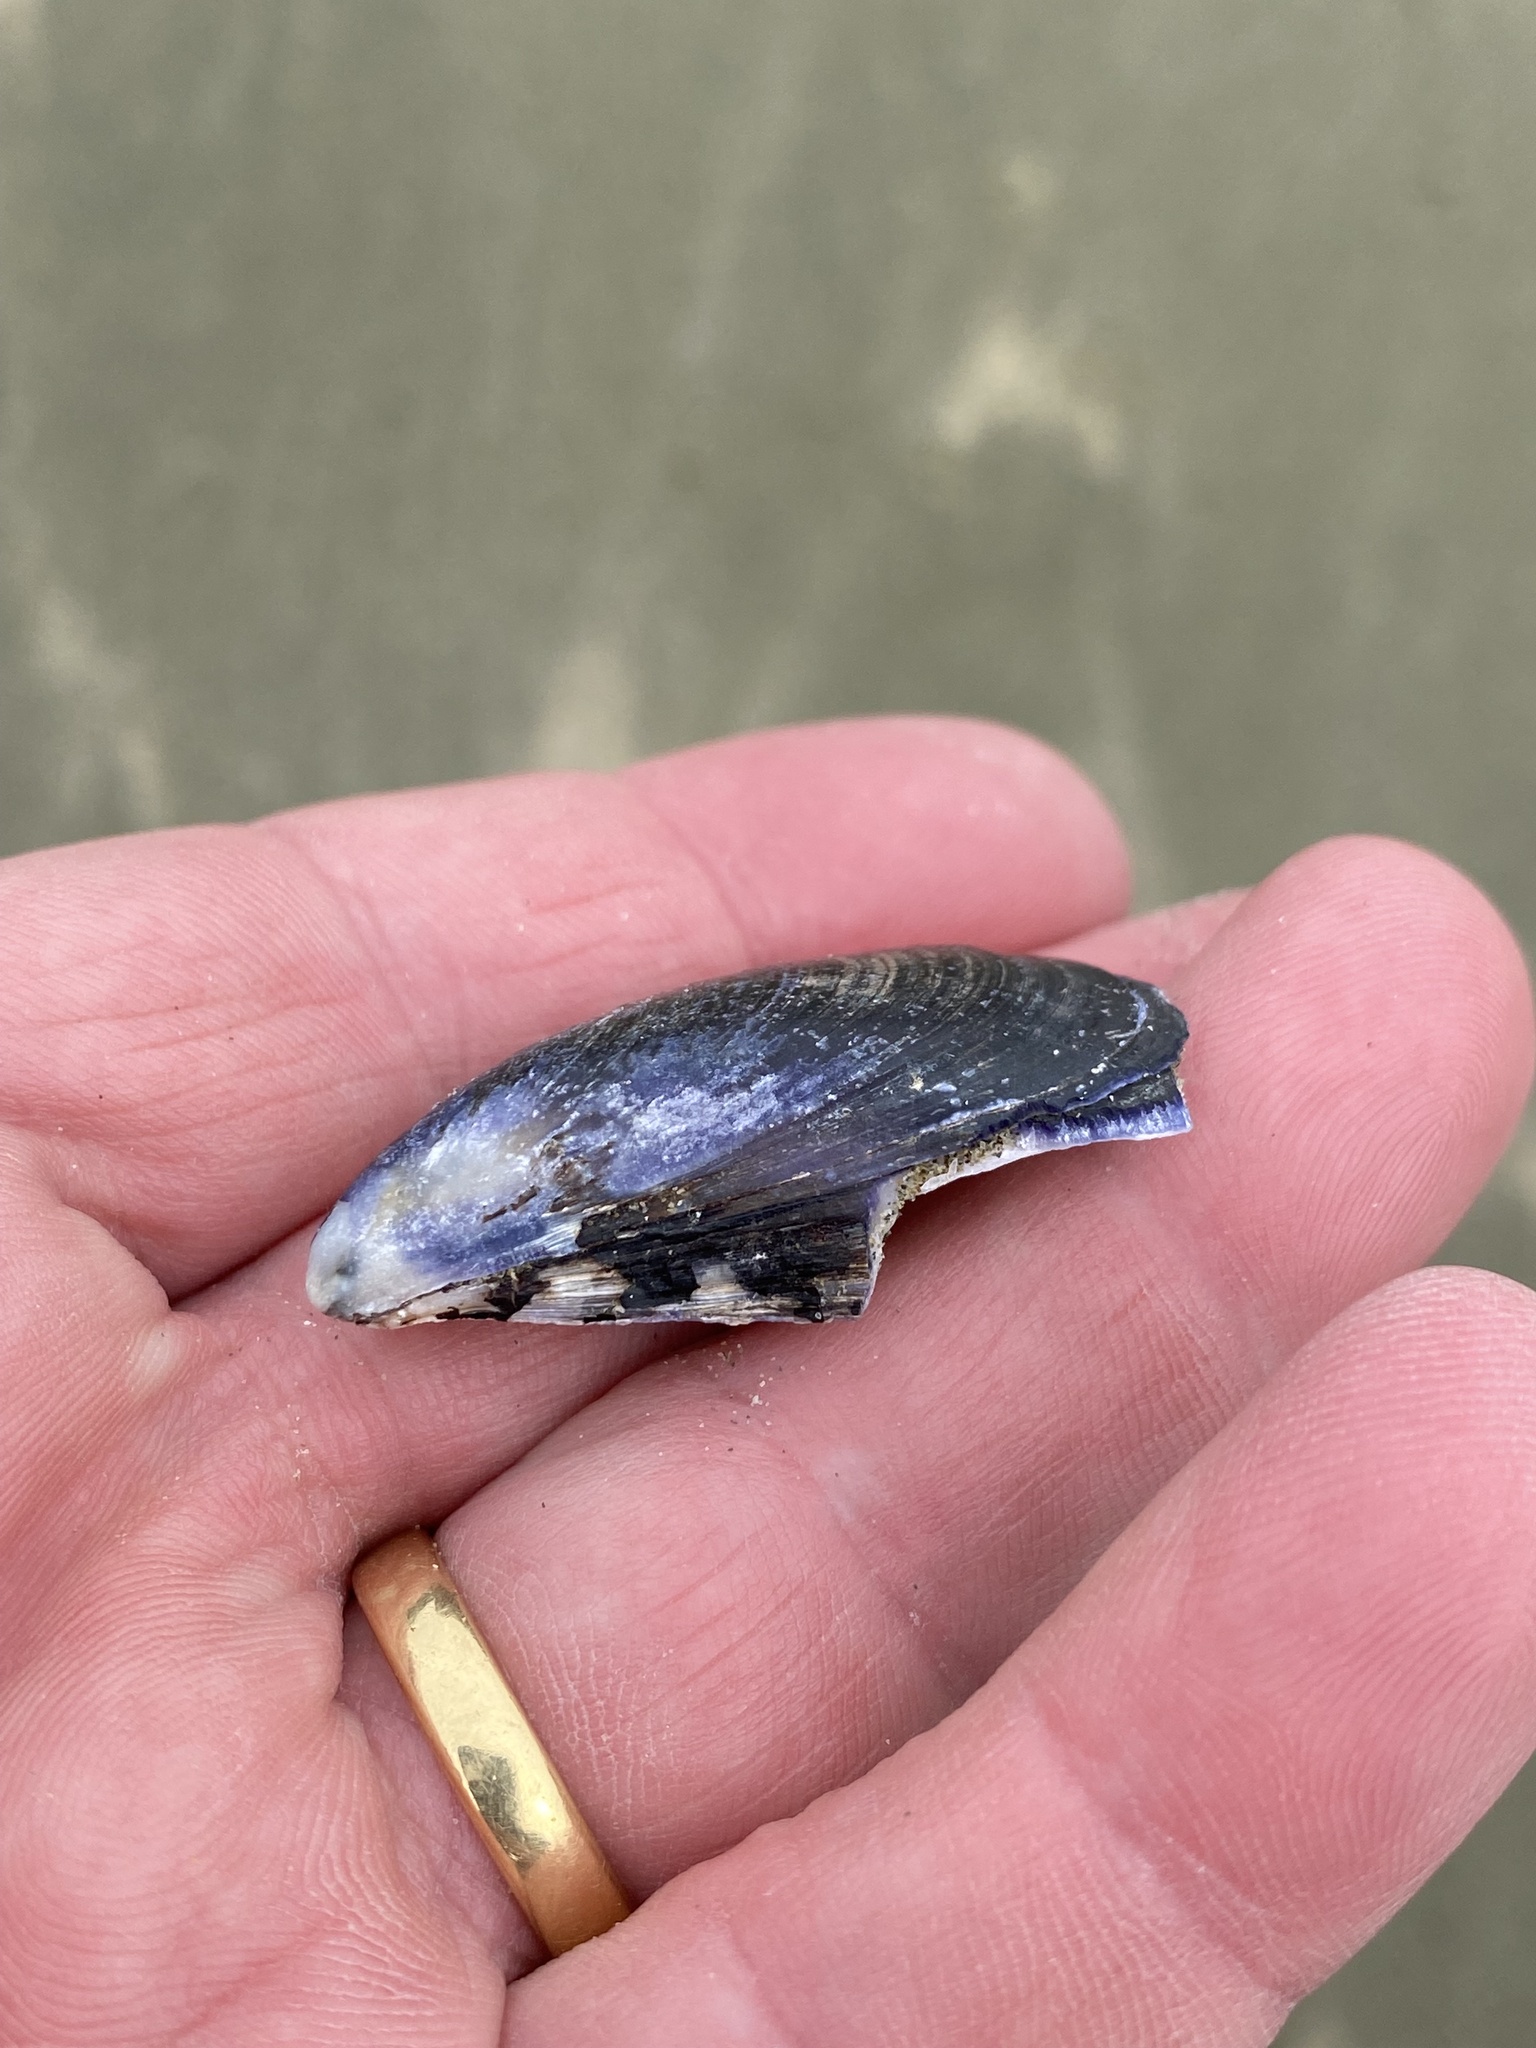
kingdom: Animalia
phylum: Mollusca
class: Bivalvia
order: Mytilida
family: Mytilidae
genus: Mytilus
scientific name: Mytilus planulatus
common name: Australian mussel
